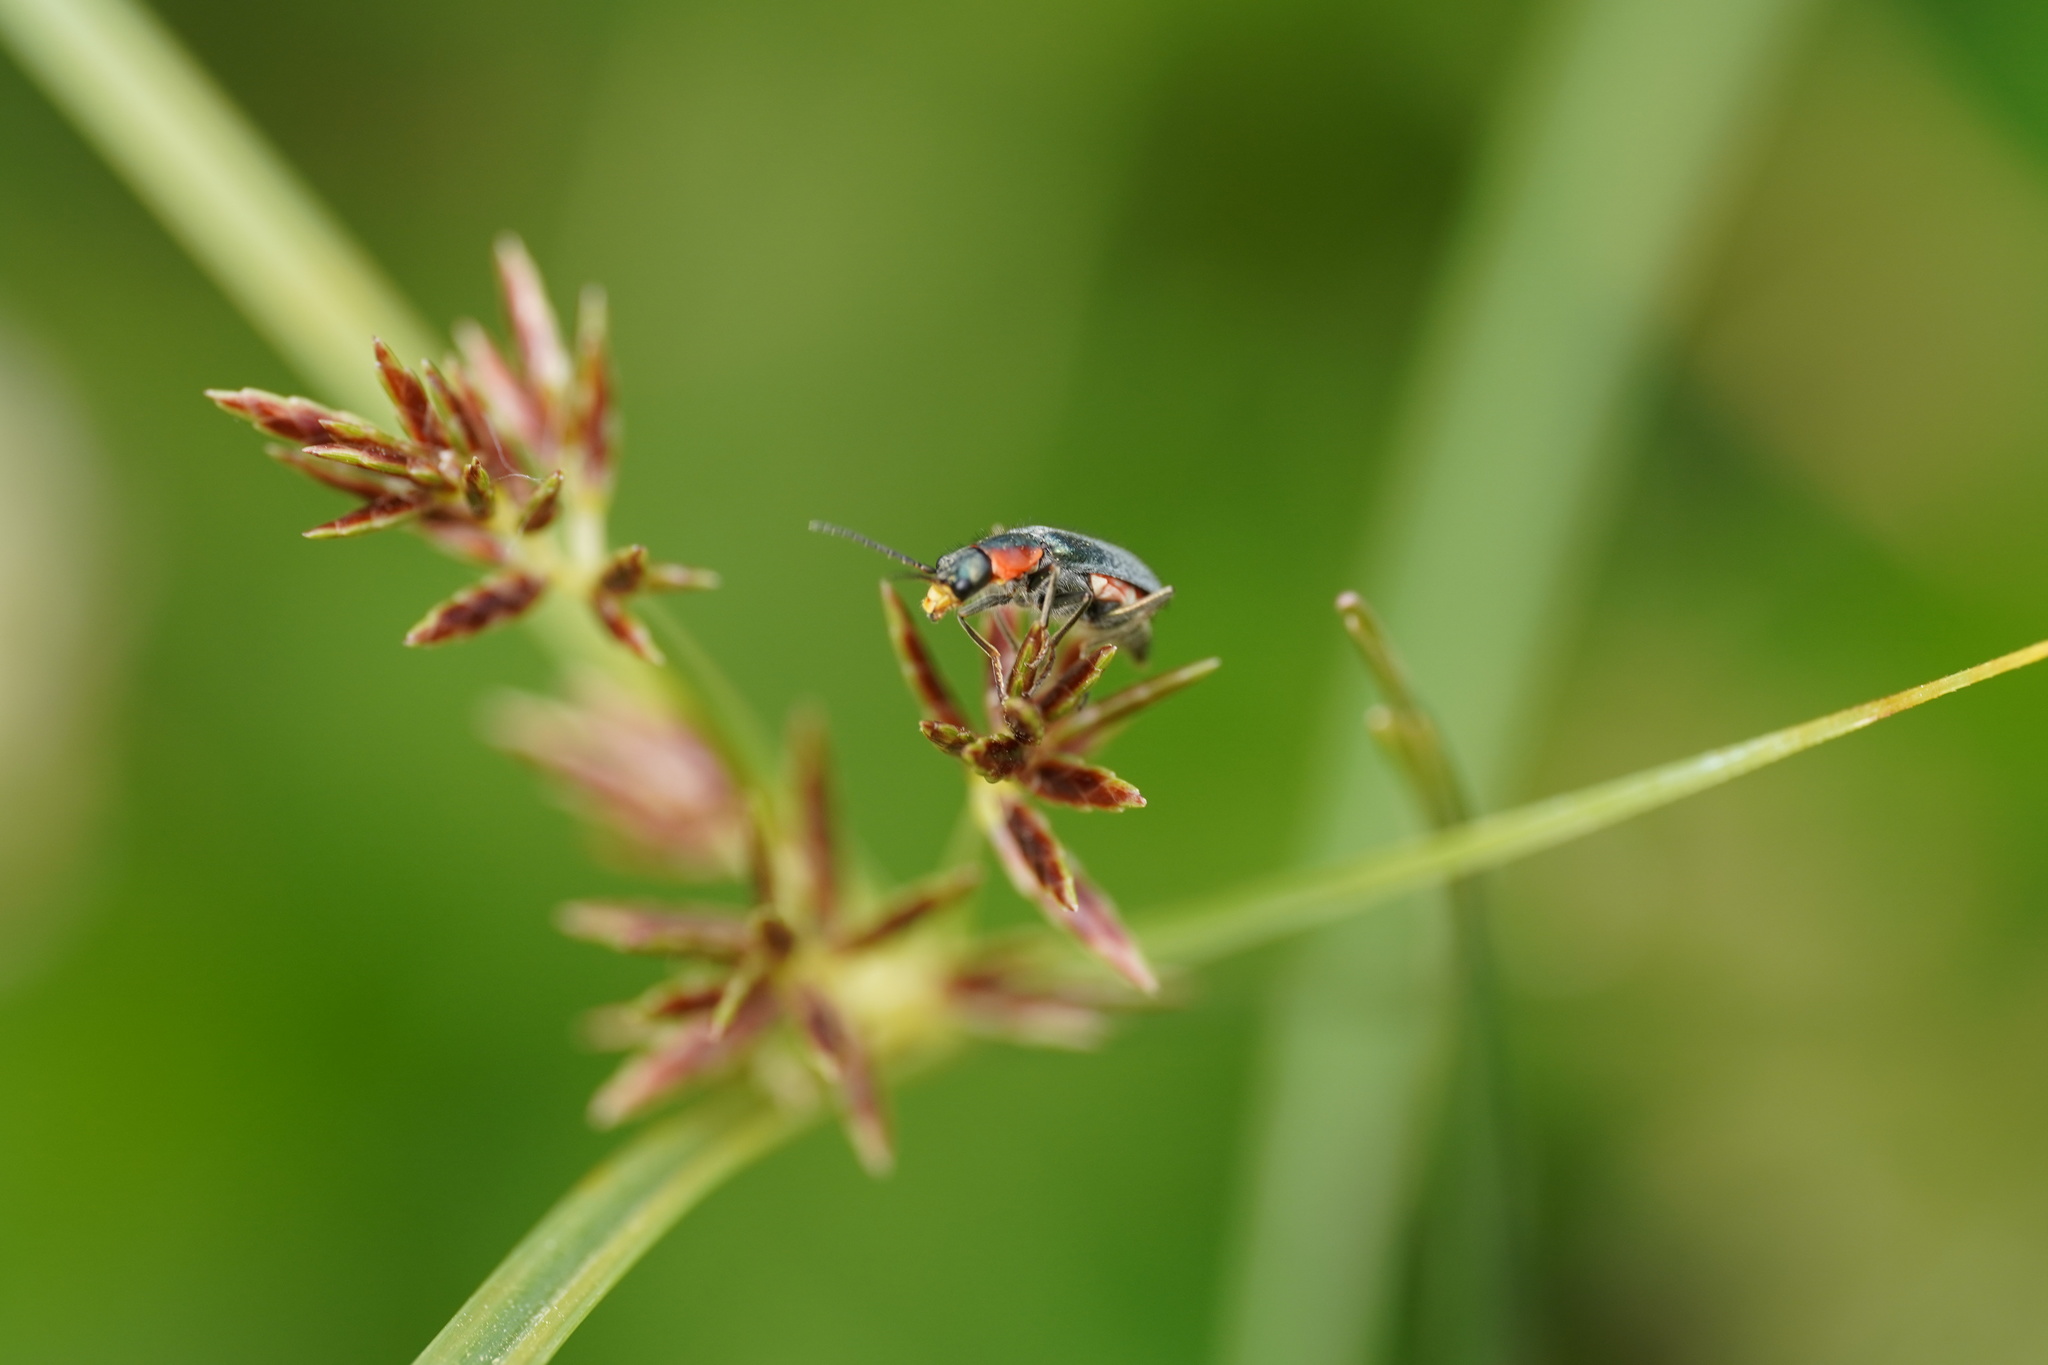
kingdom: Animalia
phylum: Arthropoda
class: Insecta
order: Coleoptera
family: Malachiidae
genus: Clanoptilus
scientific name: Clanoptilus marginellus
